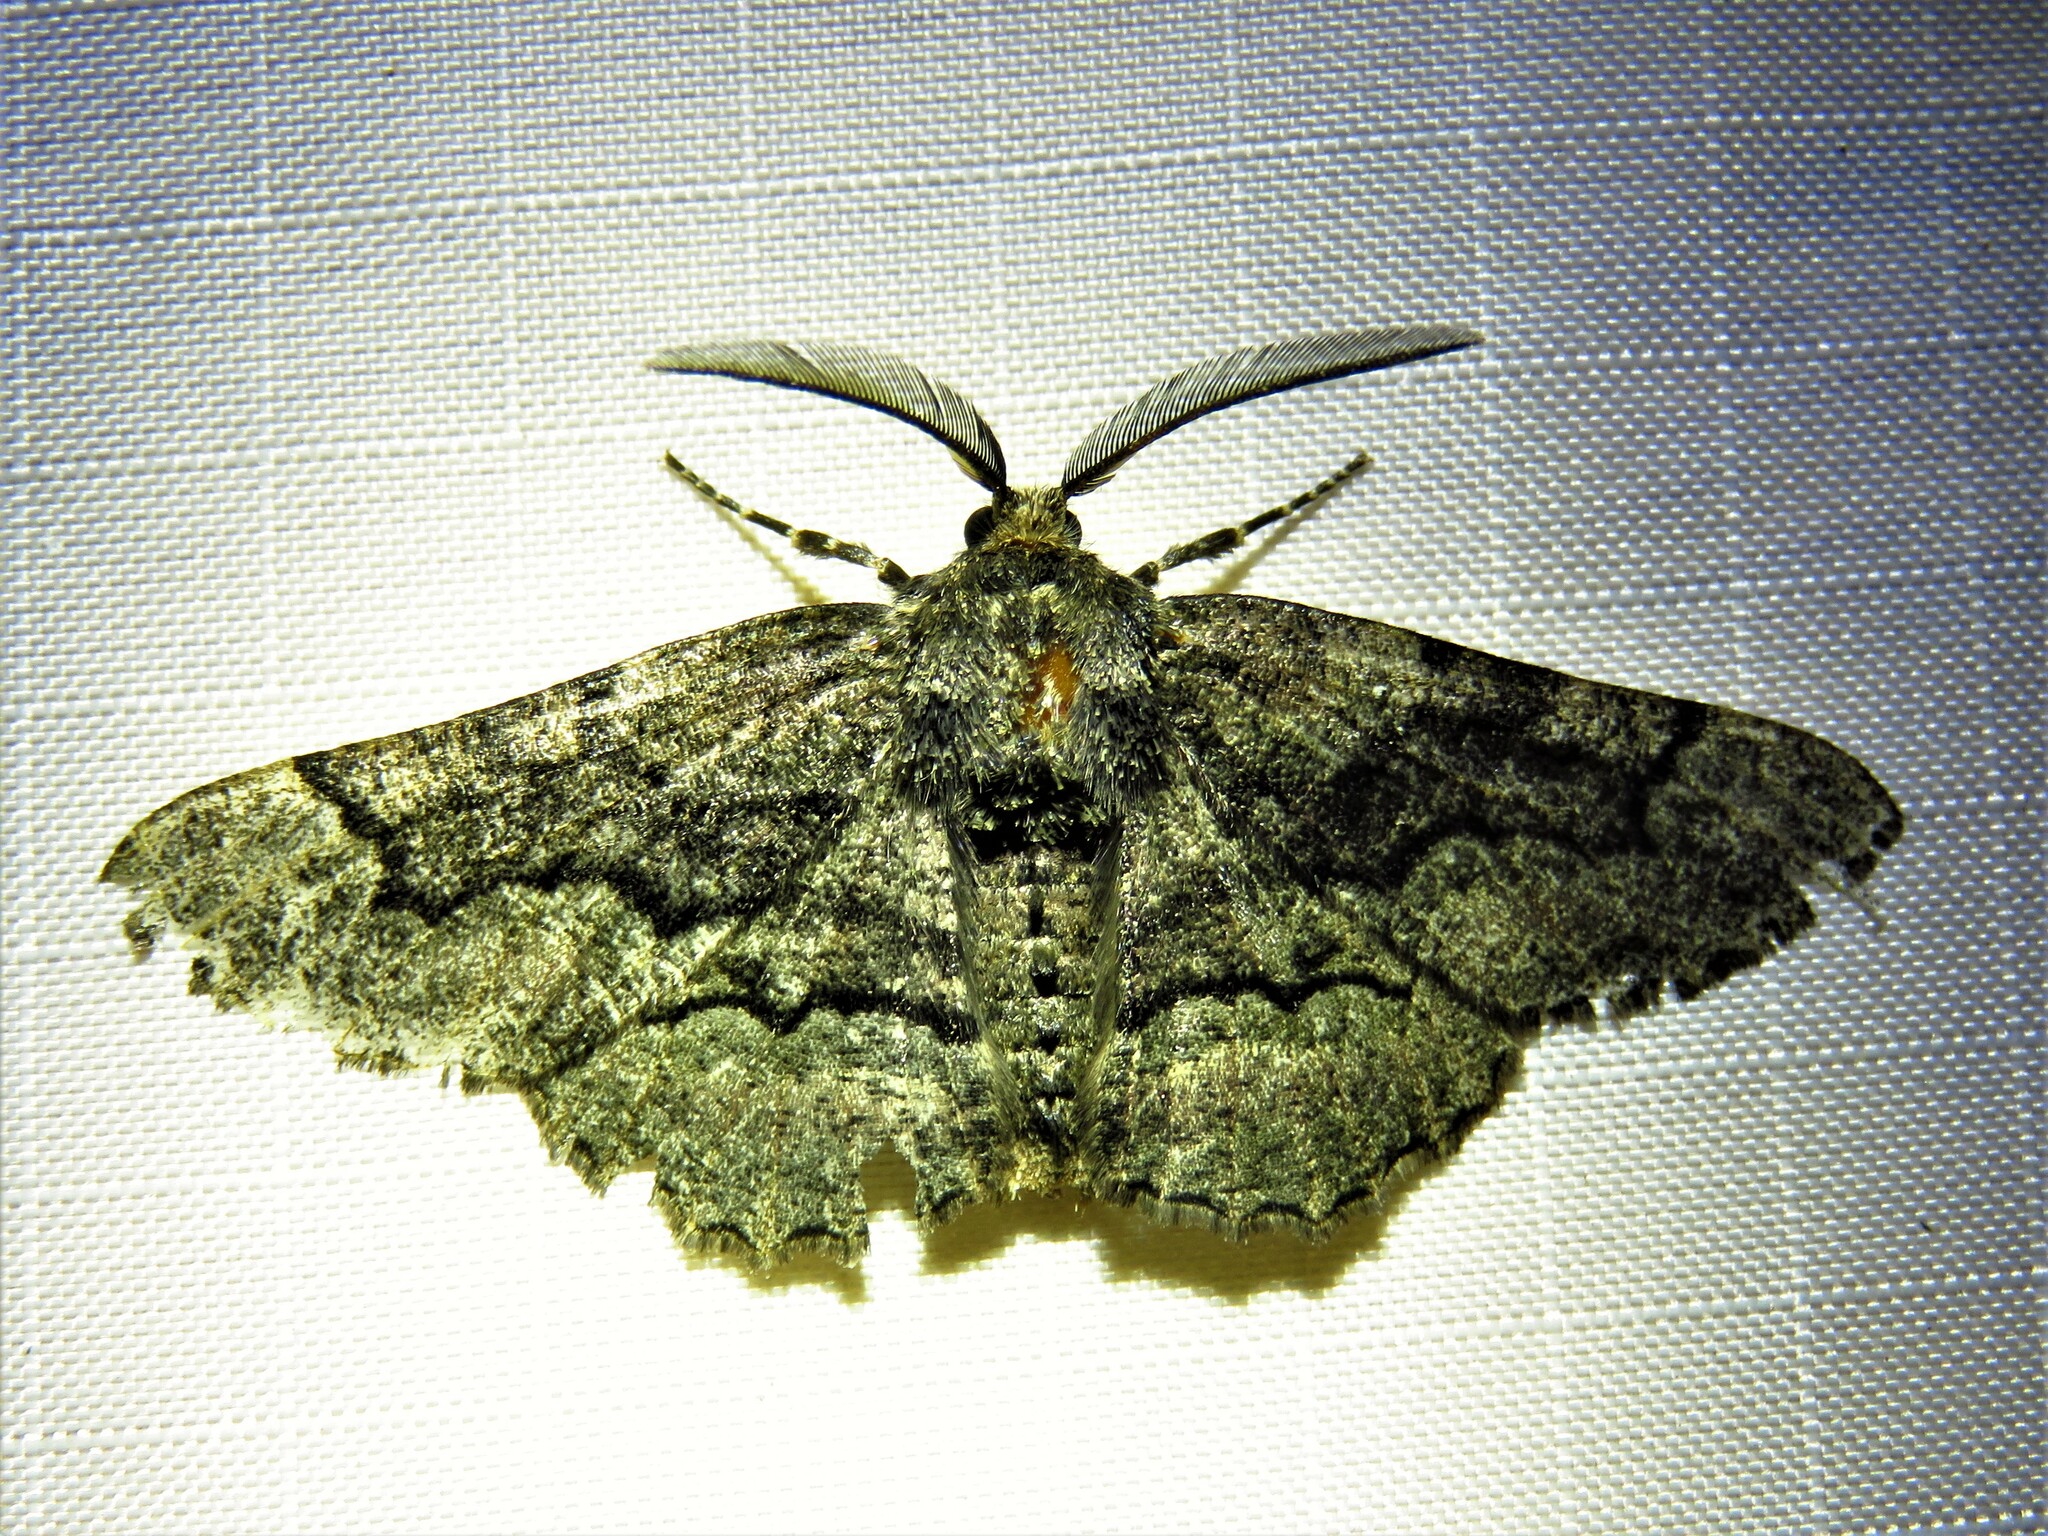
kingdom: Animalia
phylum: Arthropoda
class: Insecta
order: Lepidoptera
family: Geometridae
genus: Phaeoura
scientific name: Phaeoura quernaria
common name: Oak beauty
